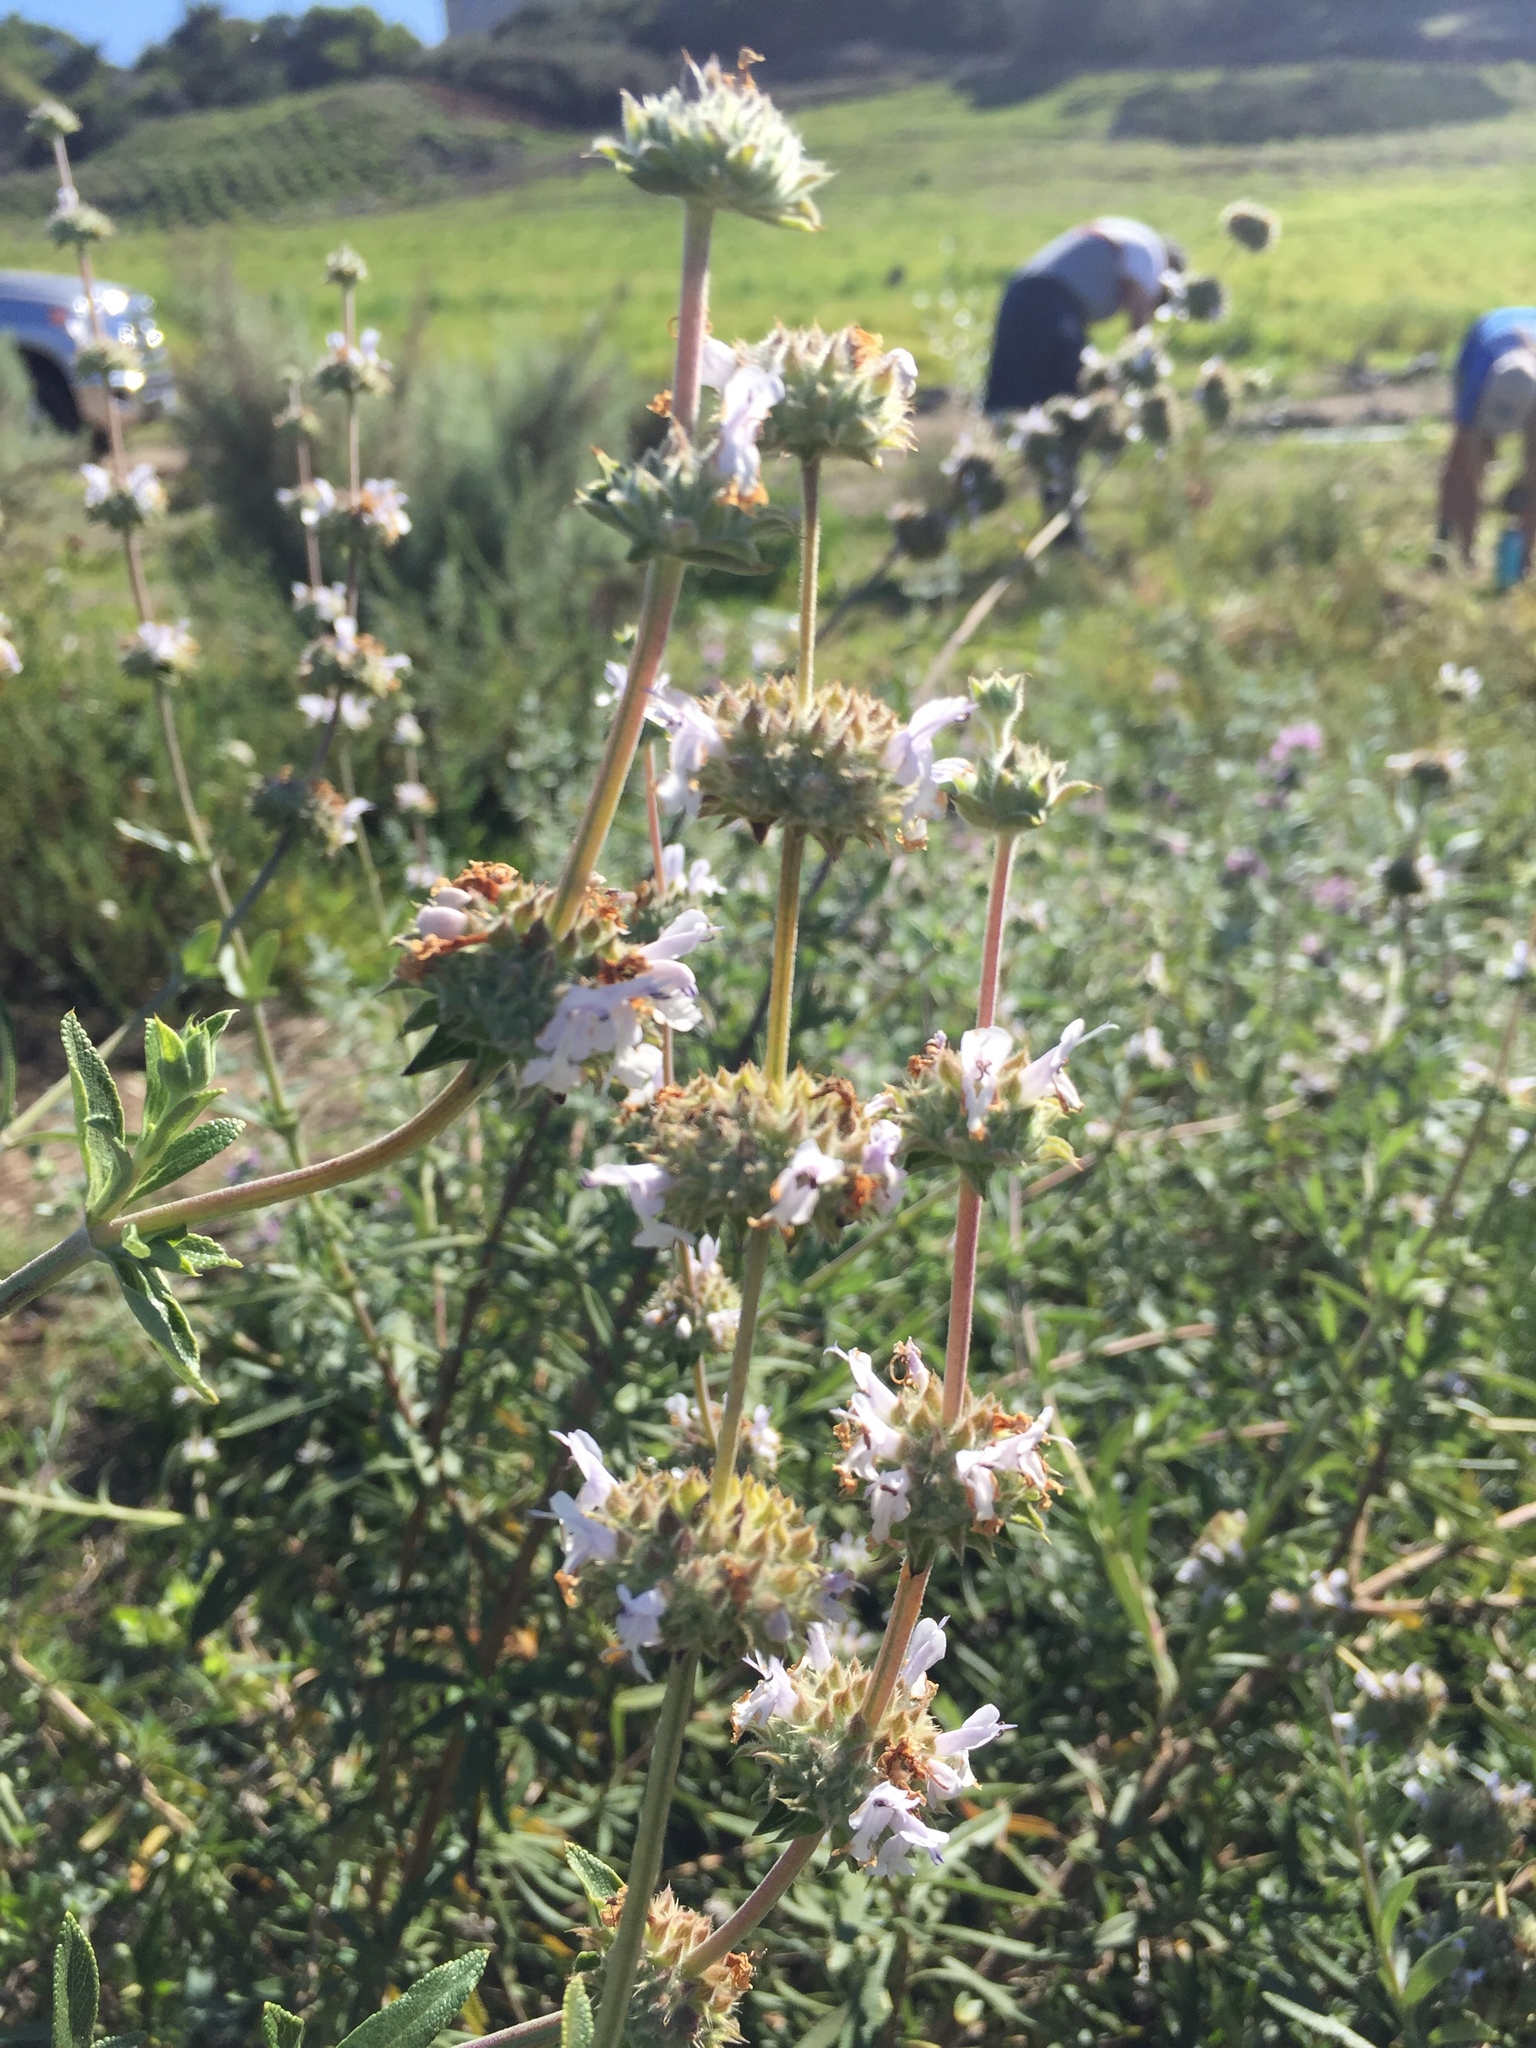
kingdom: Plantae
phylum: Tracheophyta
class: Magnoliopsida
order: Lamiales
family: Lamiaceae
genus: Salvia
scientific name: Salvia mellifera
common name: Black sage
